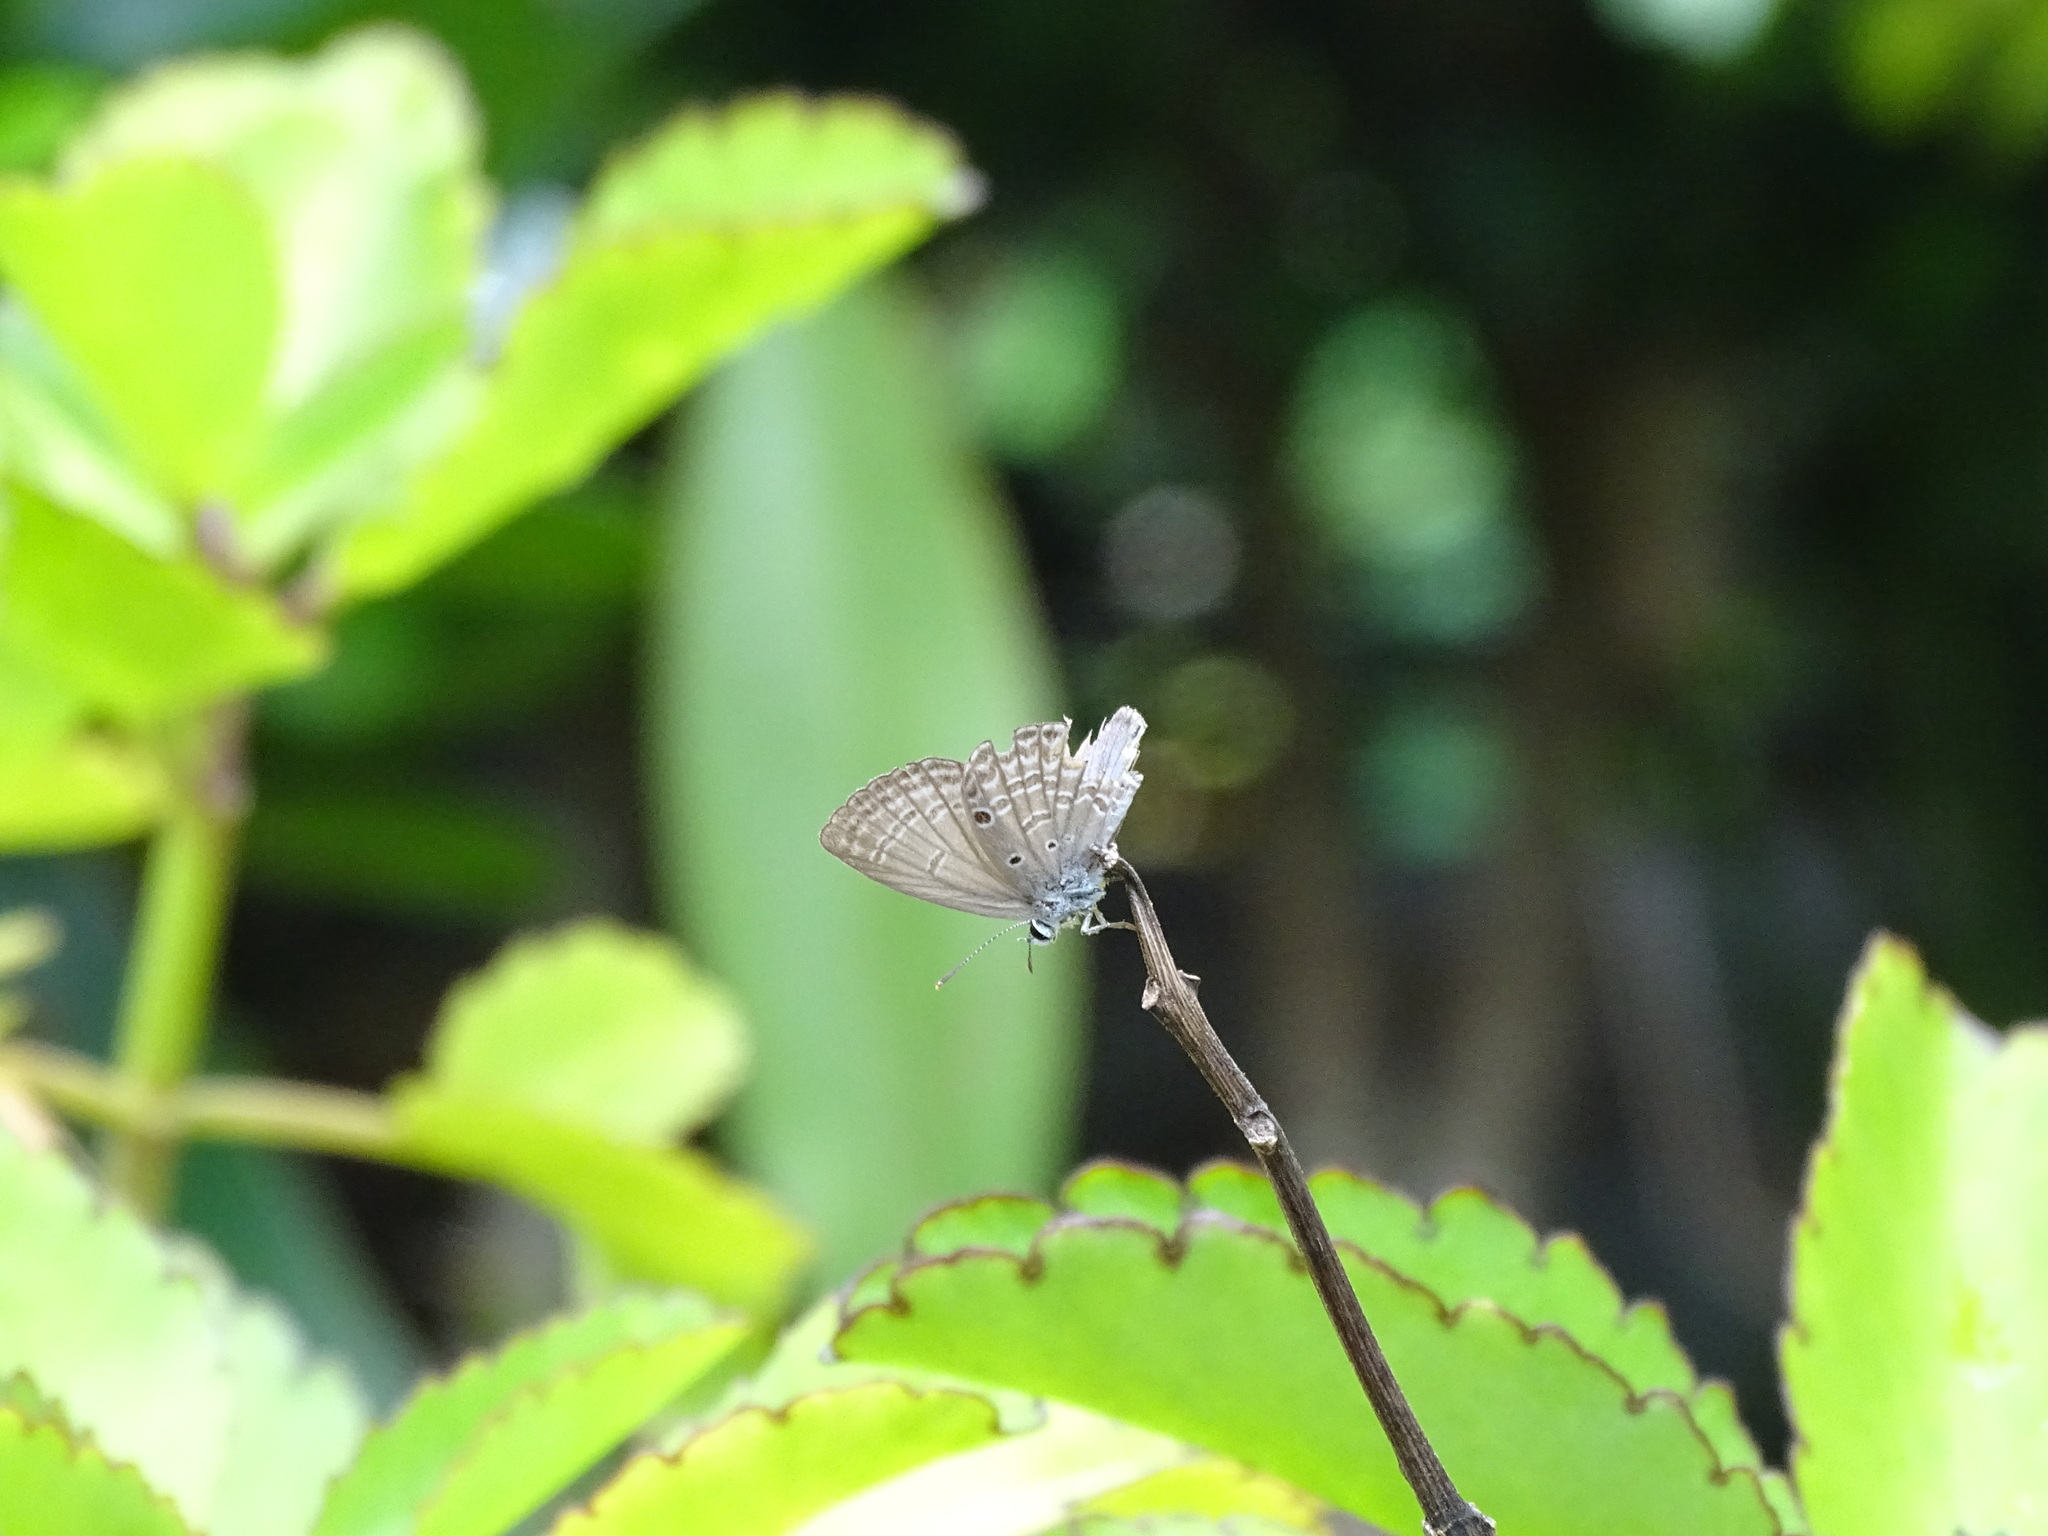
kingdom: Animalia
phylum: Arthropoda
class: Insecta
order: Lepidoptera
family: Lycaenidae
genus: Luthrodes
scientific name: Luthrodes pandava
